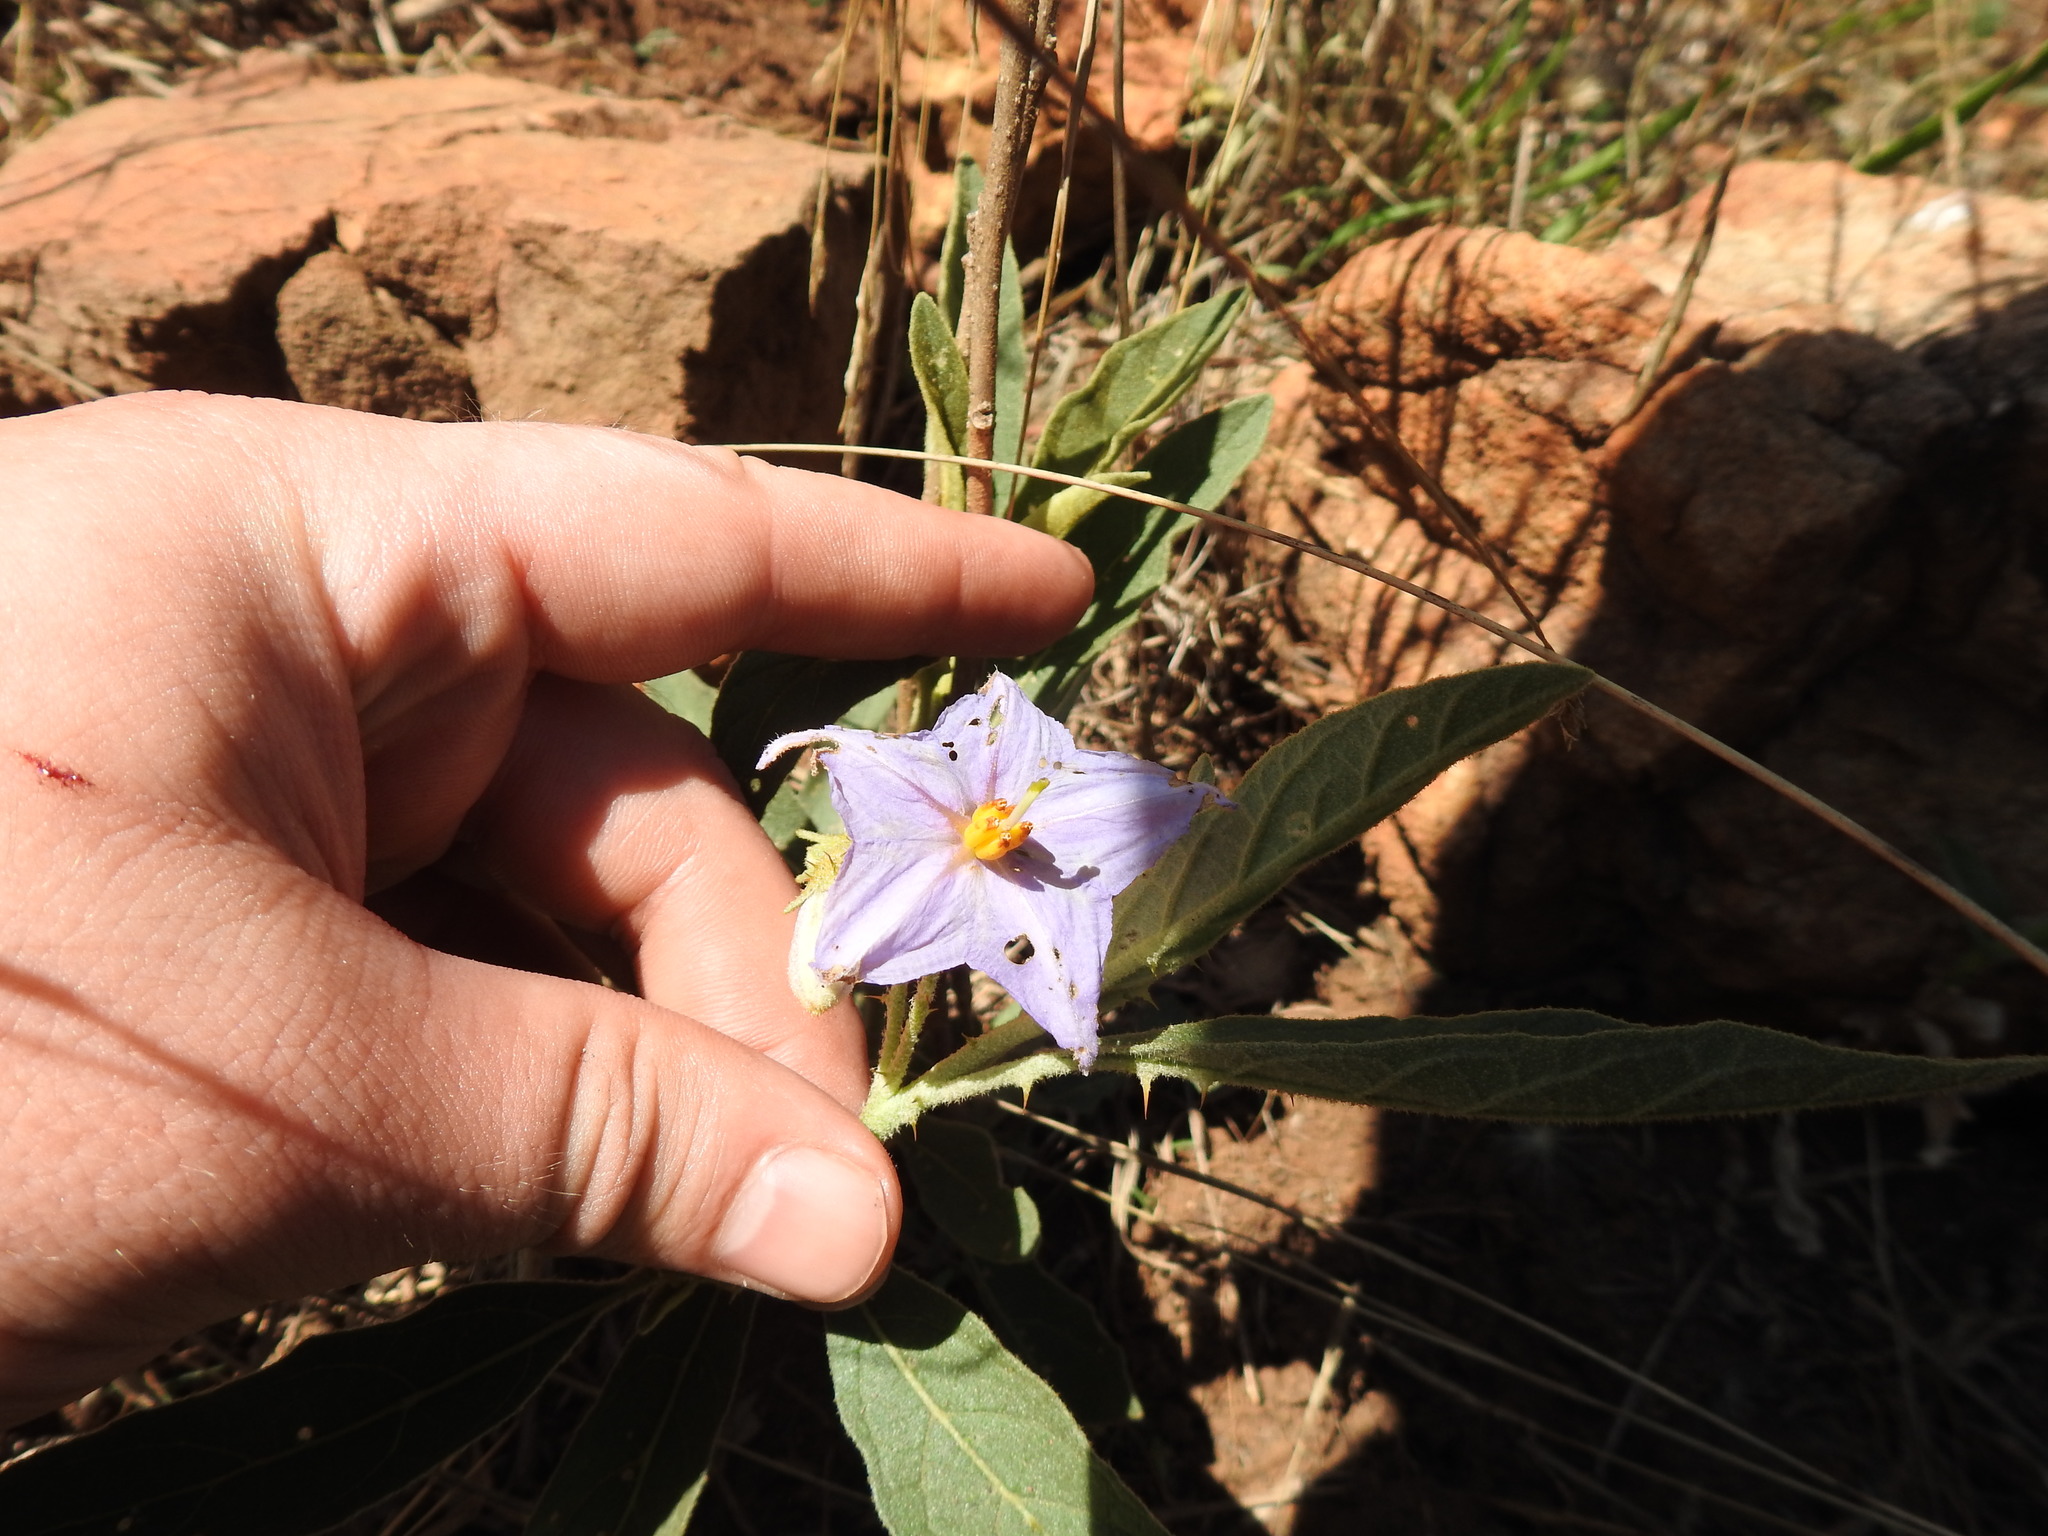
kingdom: Plantae
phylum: Tracheophyta
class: Magnoliopsida
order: Solanales
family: Solanaceae
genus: Solanum
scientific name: Solanum campylacanthum
